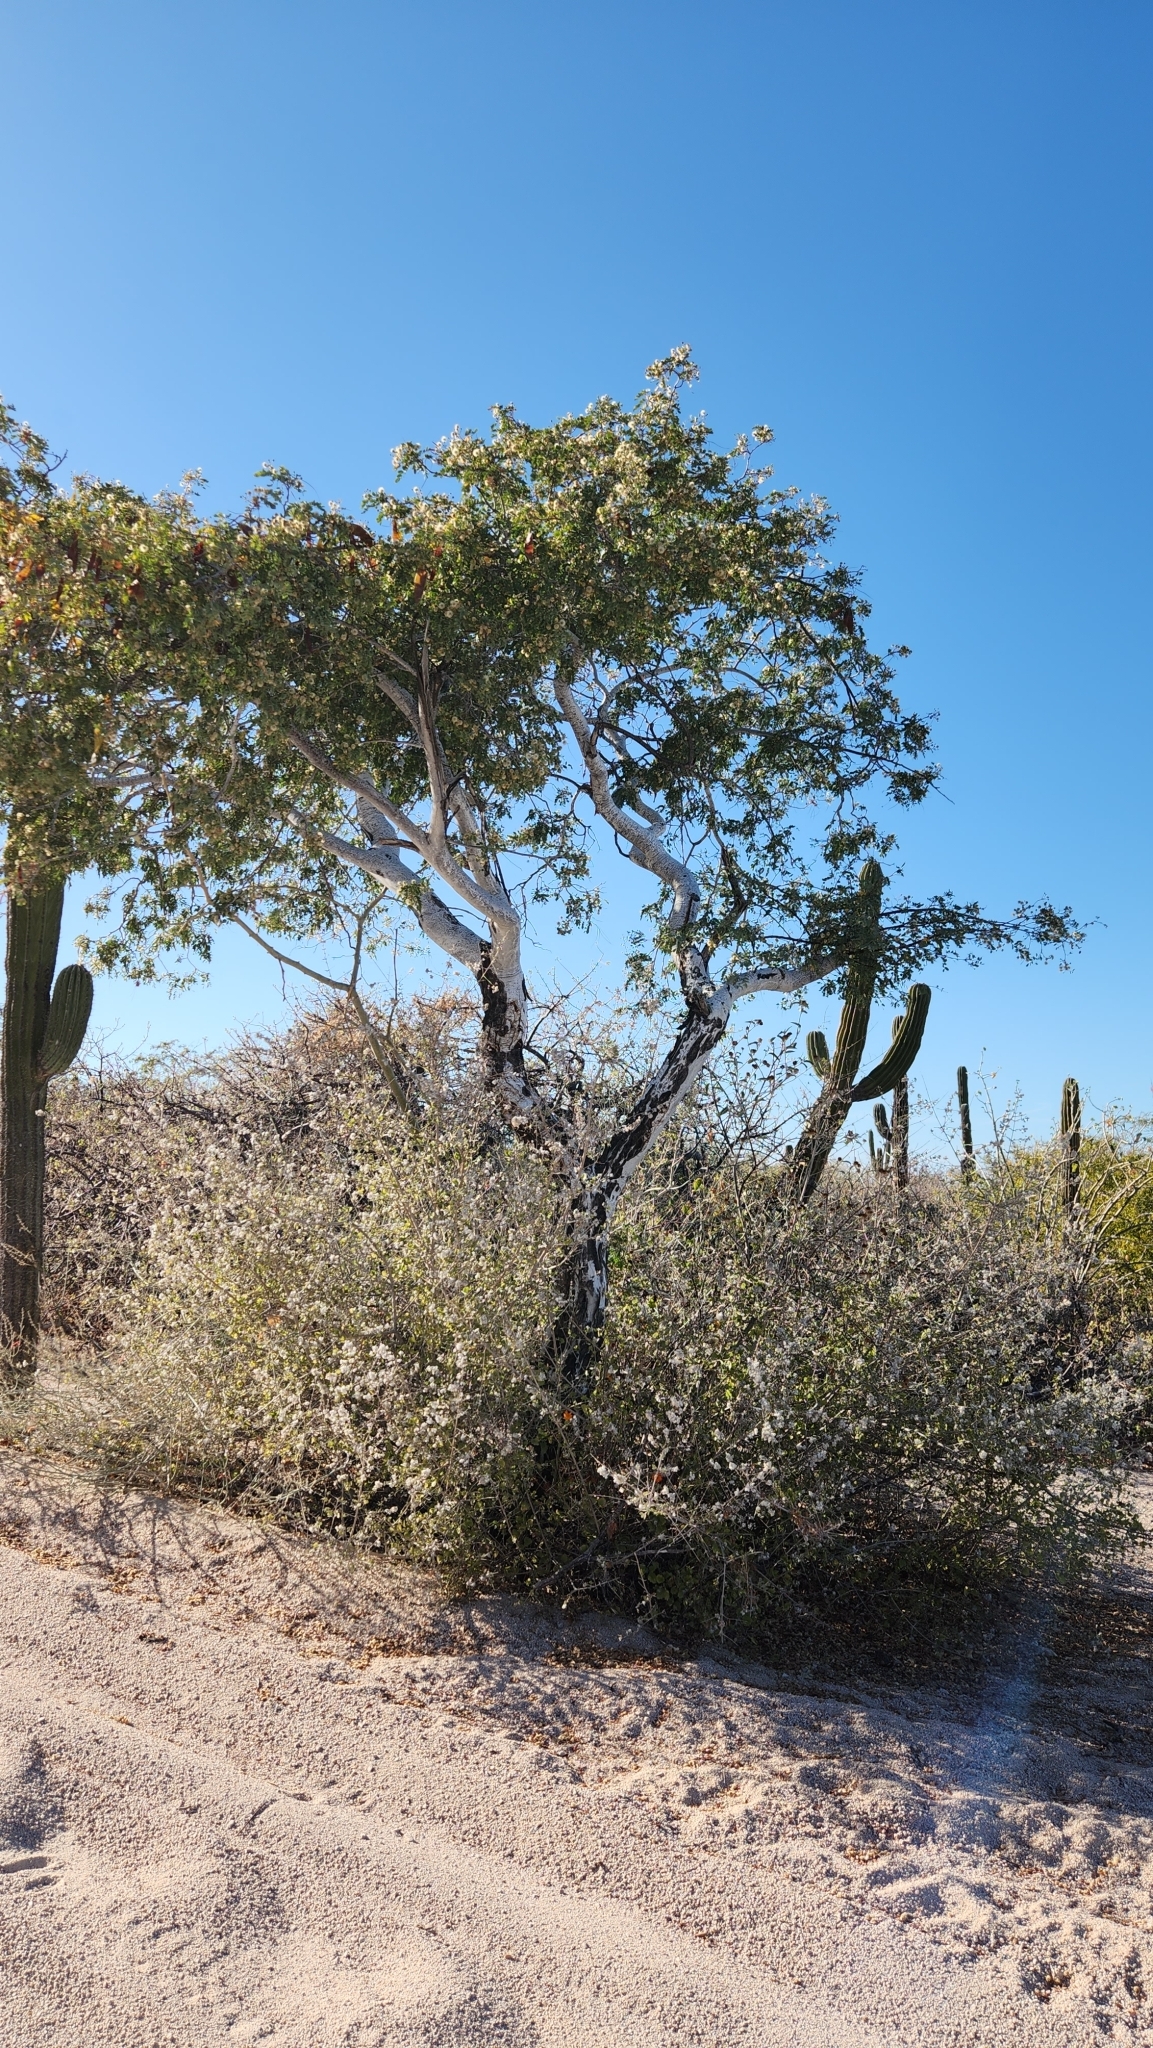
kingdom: Plantae
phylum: Tracheophyta
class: Magnoliopsida
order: Fabales
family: Fabaceae
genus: Lysiloma
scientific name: Lysiloma candidum
